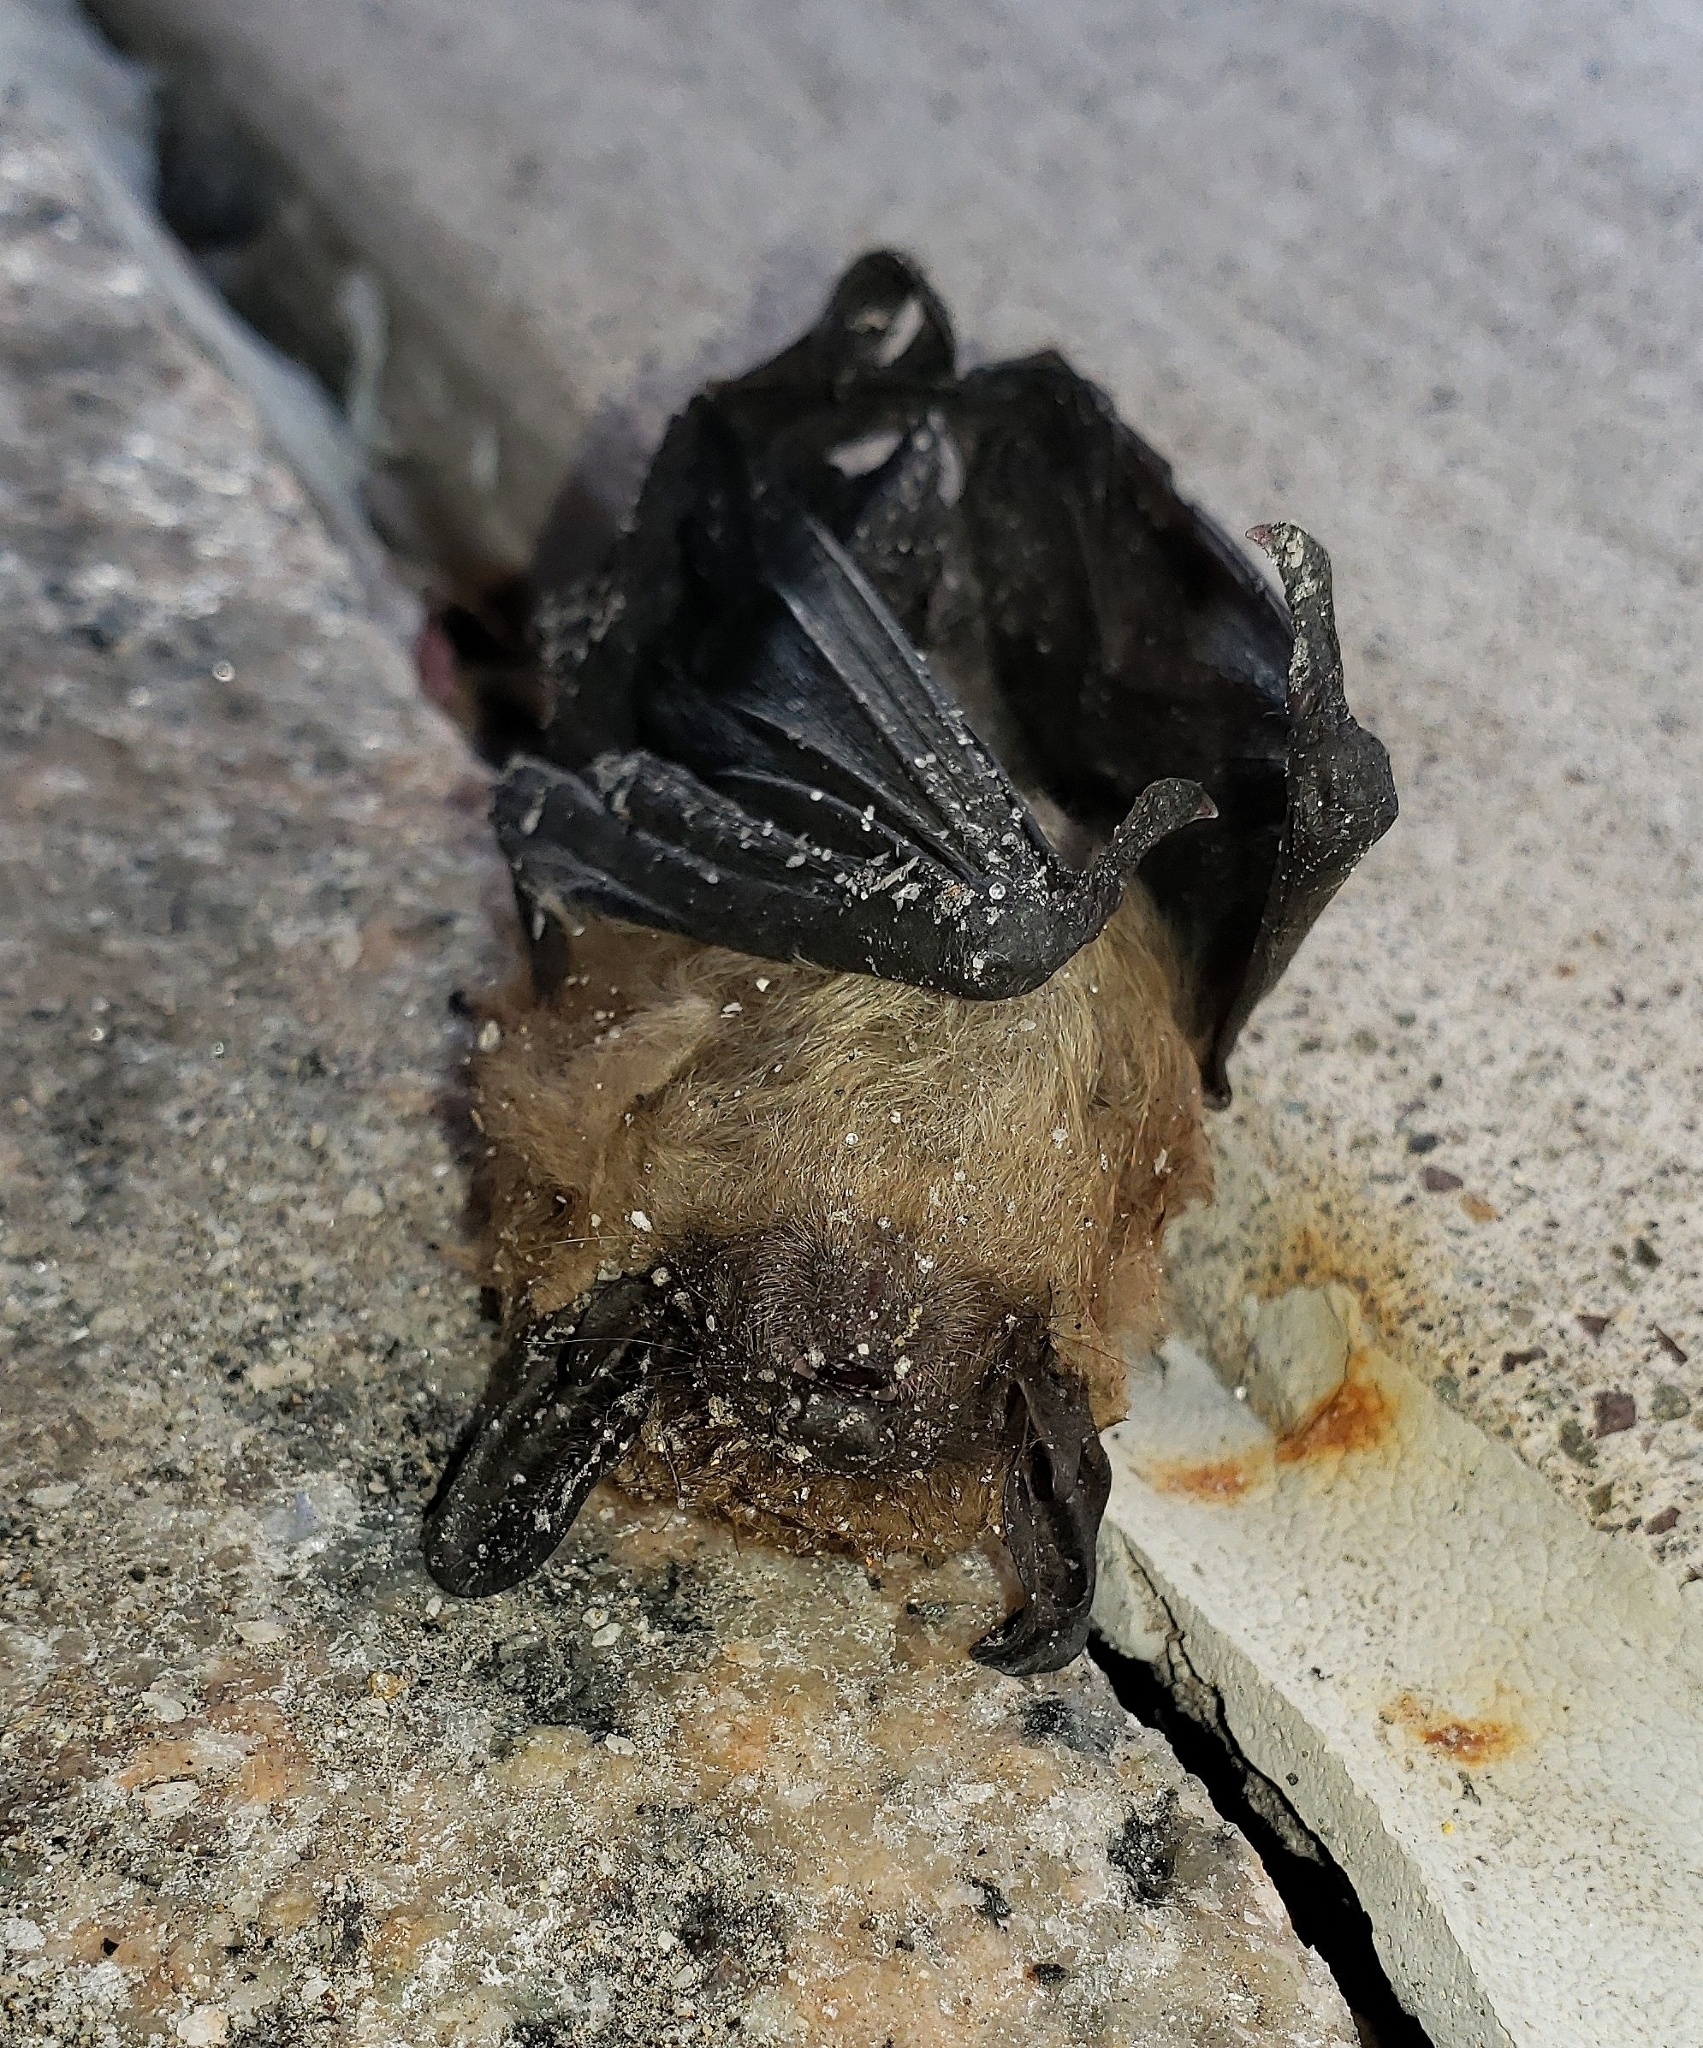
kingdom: Animalia
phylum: Chordata
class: Mammalia
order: Chiroptera
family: Vespertilionidae
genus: Eptesicus
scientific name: Eptesicus fuscus
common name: Big brown bat
